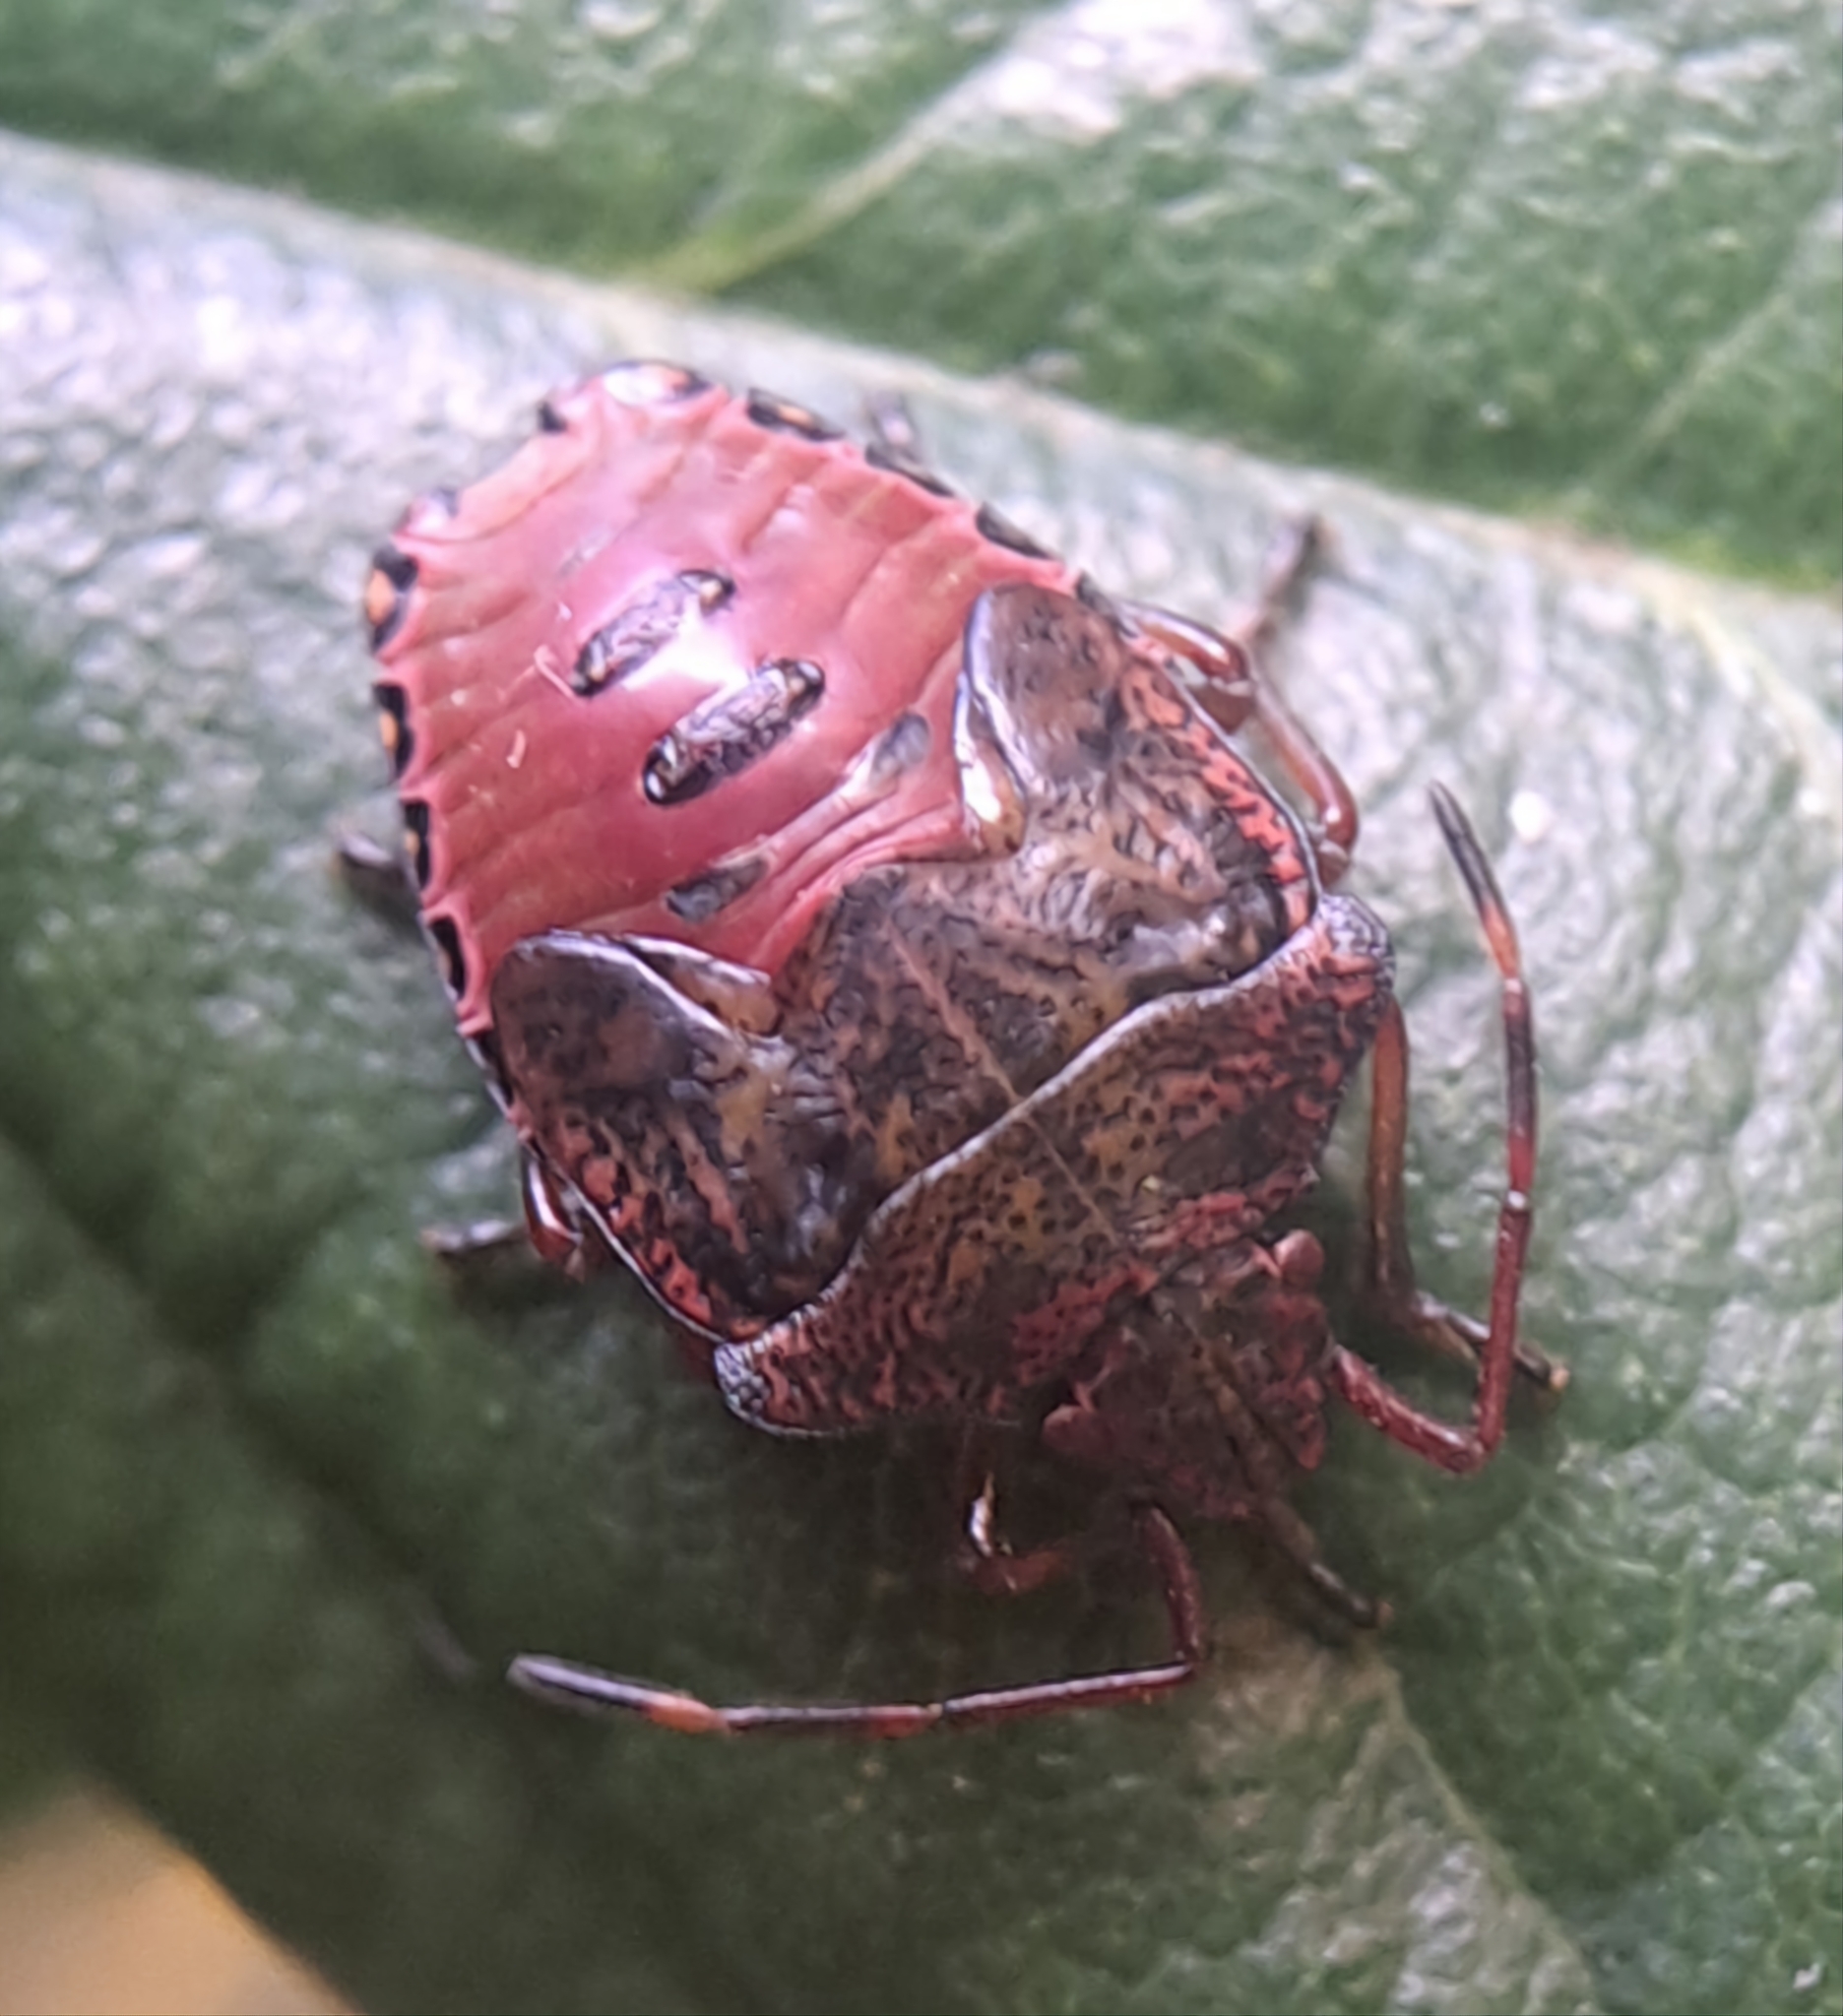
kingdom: Animalia
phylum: Arthropoda
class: Insecta
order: Hemiptera
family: Acanthosomatidae
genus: Acanthosoma
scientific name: Acanthosoma haemorrhoidale
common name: Hawthorn shieldbug
